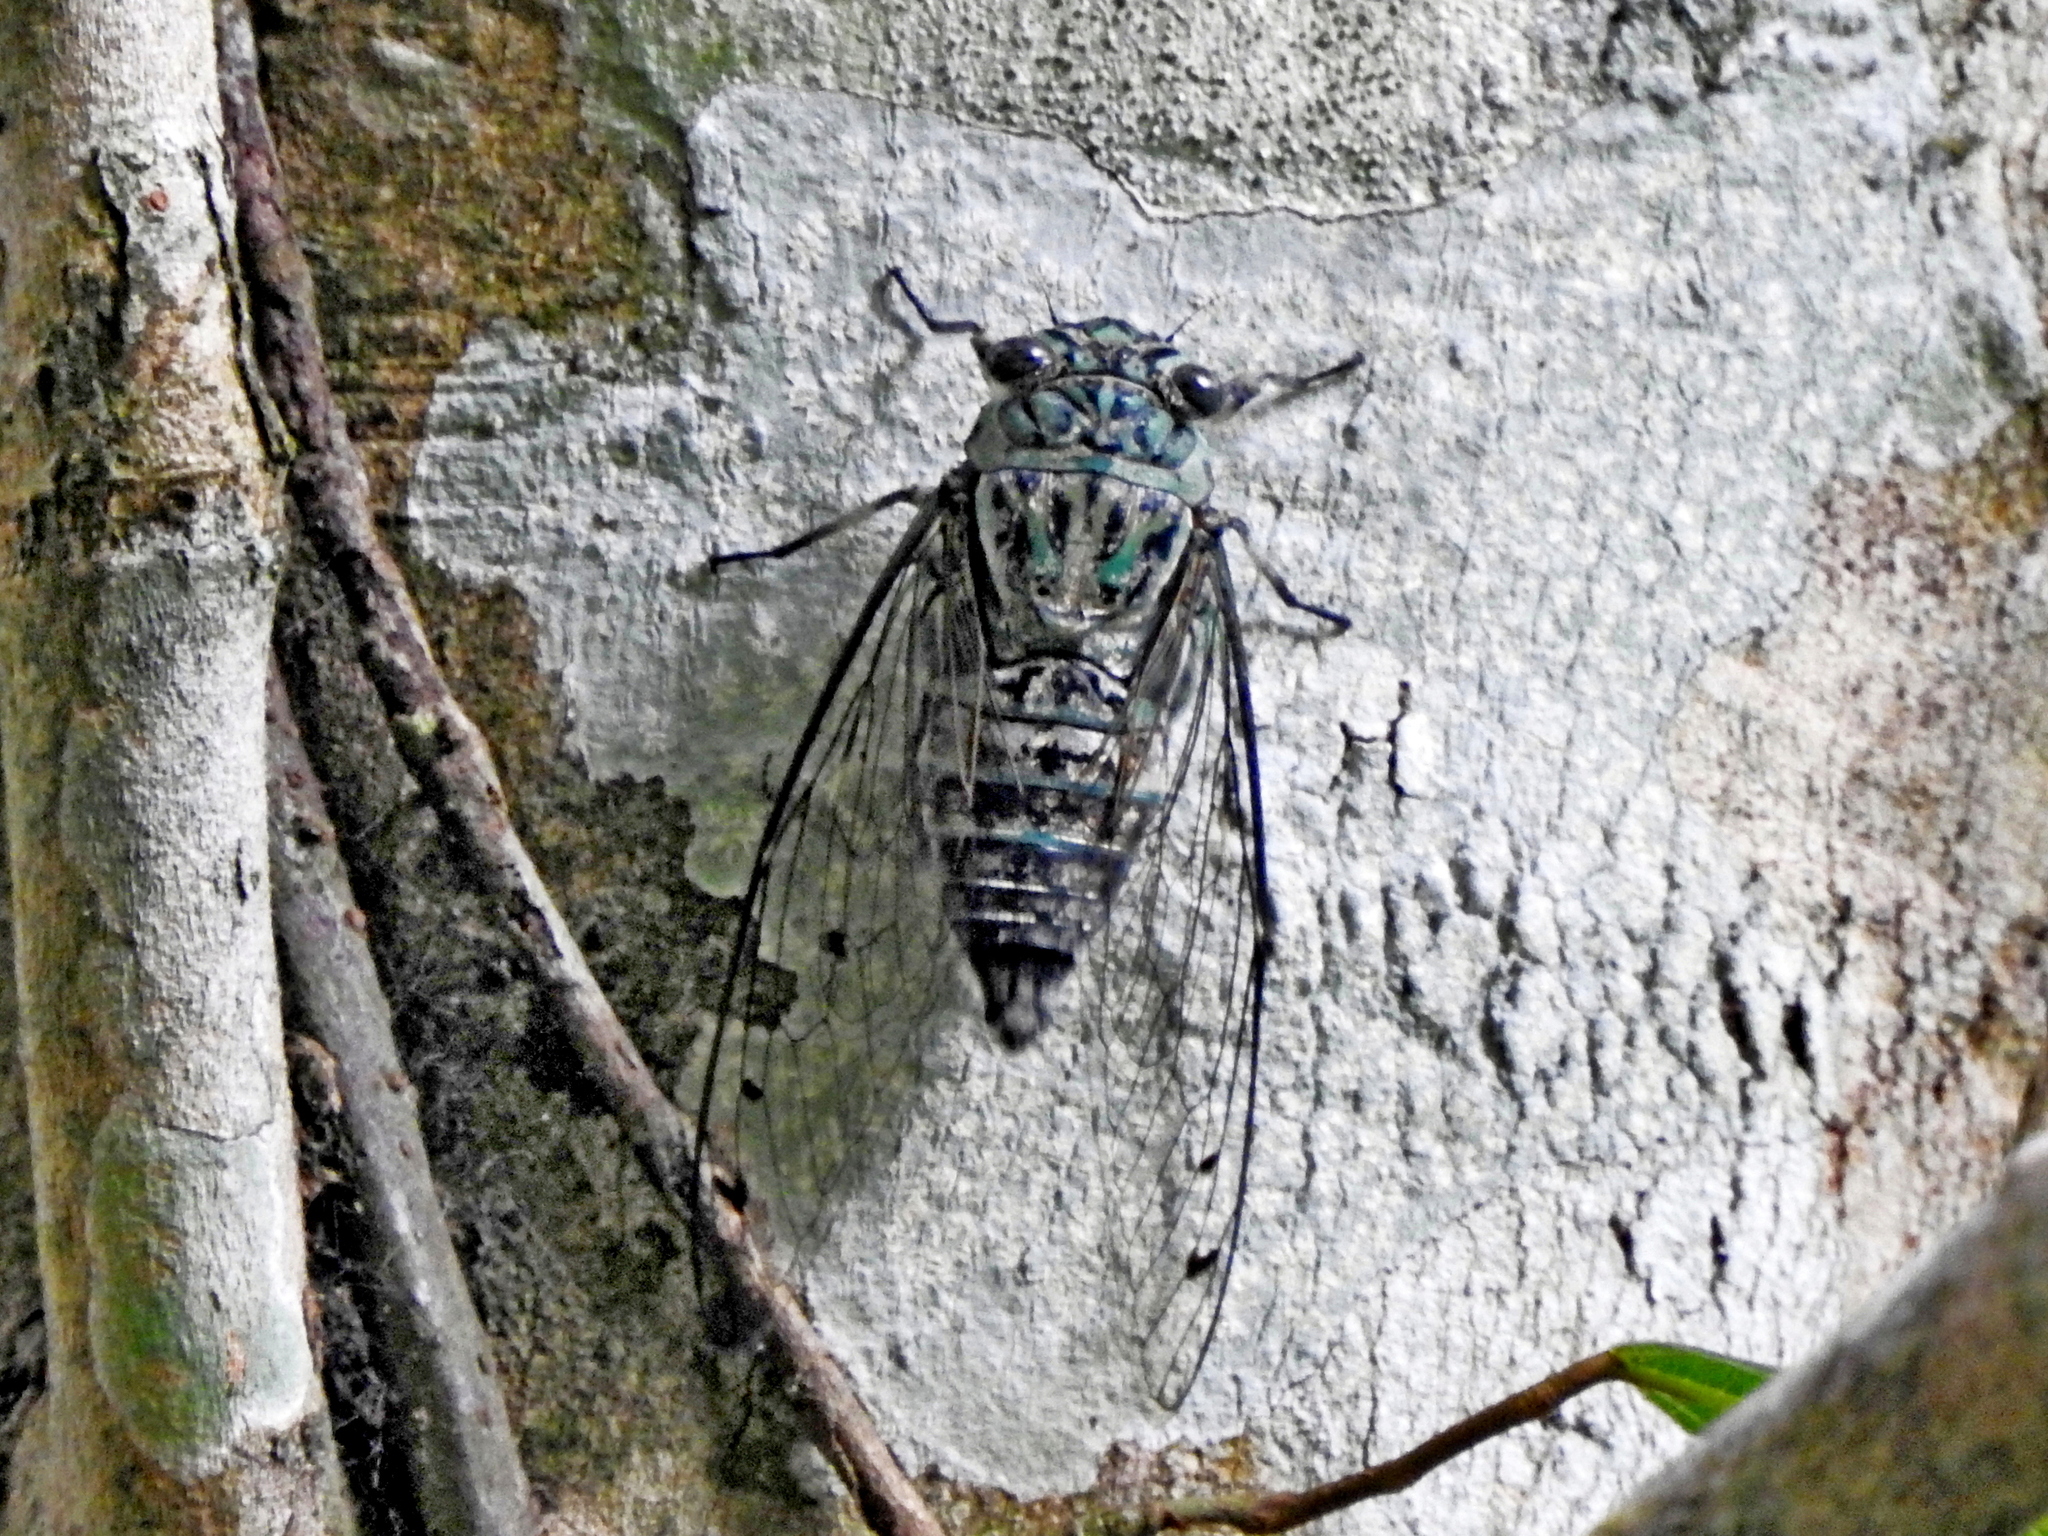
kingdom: Animalia
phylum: Arthropoda
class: Insecta
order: Hemiptera
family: Cicadidae
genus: Meimuna
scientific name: Meimuna iwasakii
